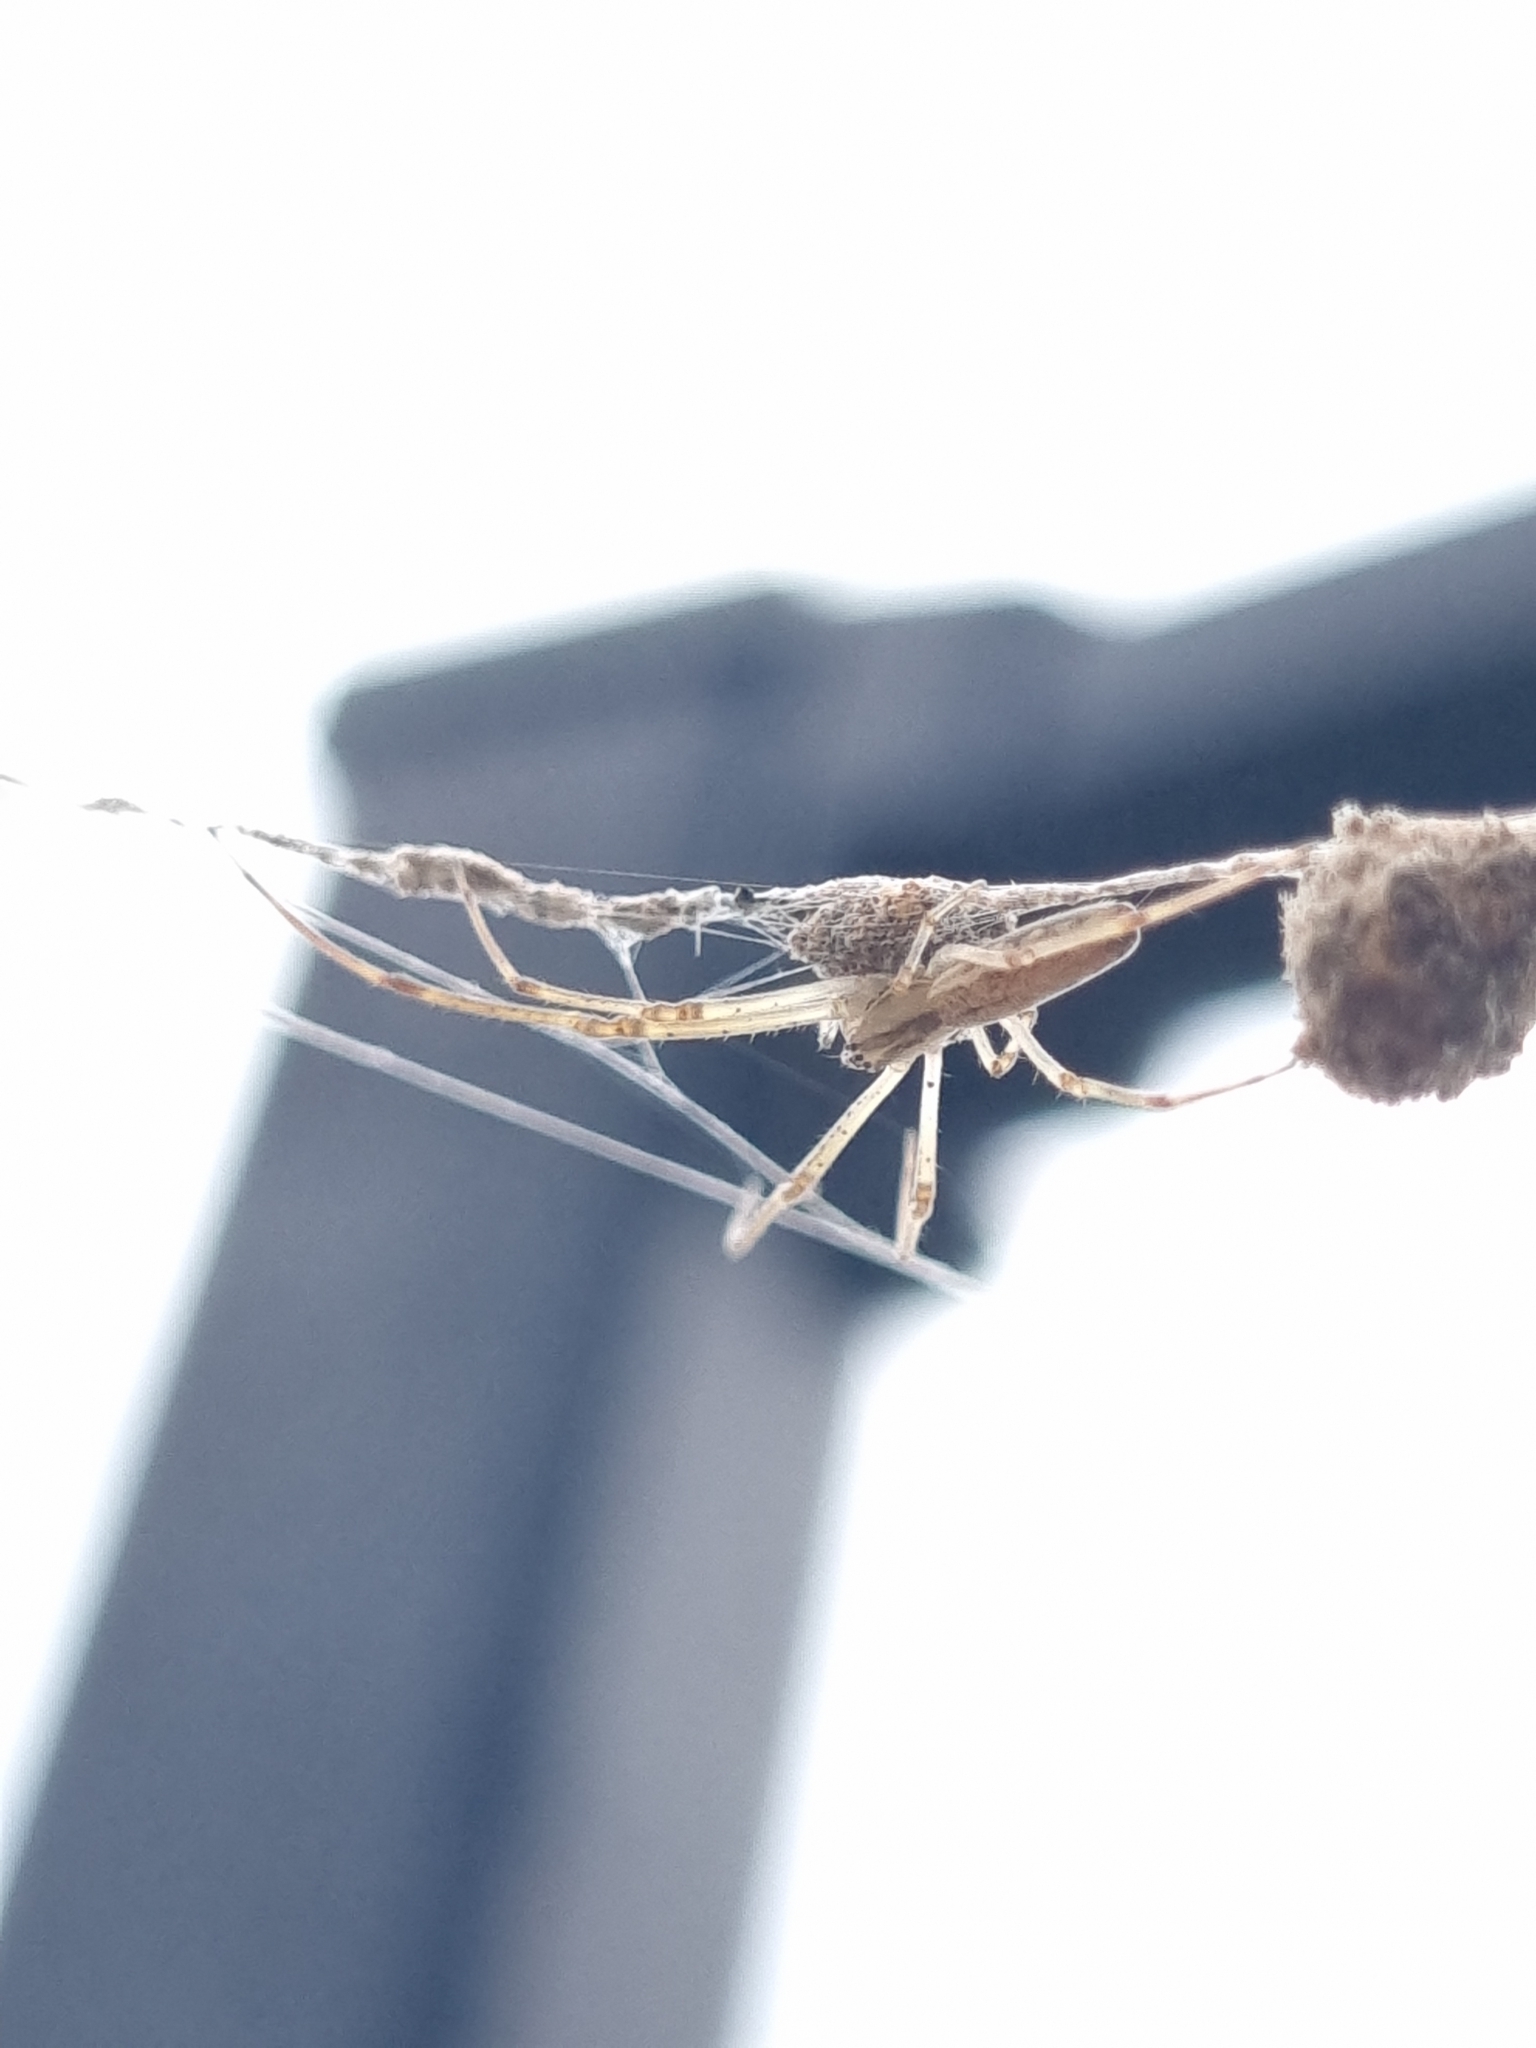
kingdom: Animalia
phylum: Arthropoda
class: Arachnida
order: Araneae
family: Tetragnathidae
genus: Tetragnatha
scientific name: Tetragnatha
